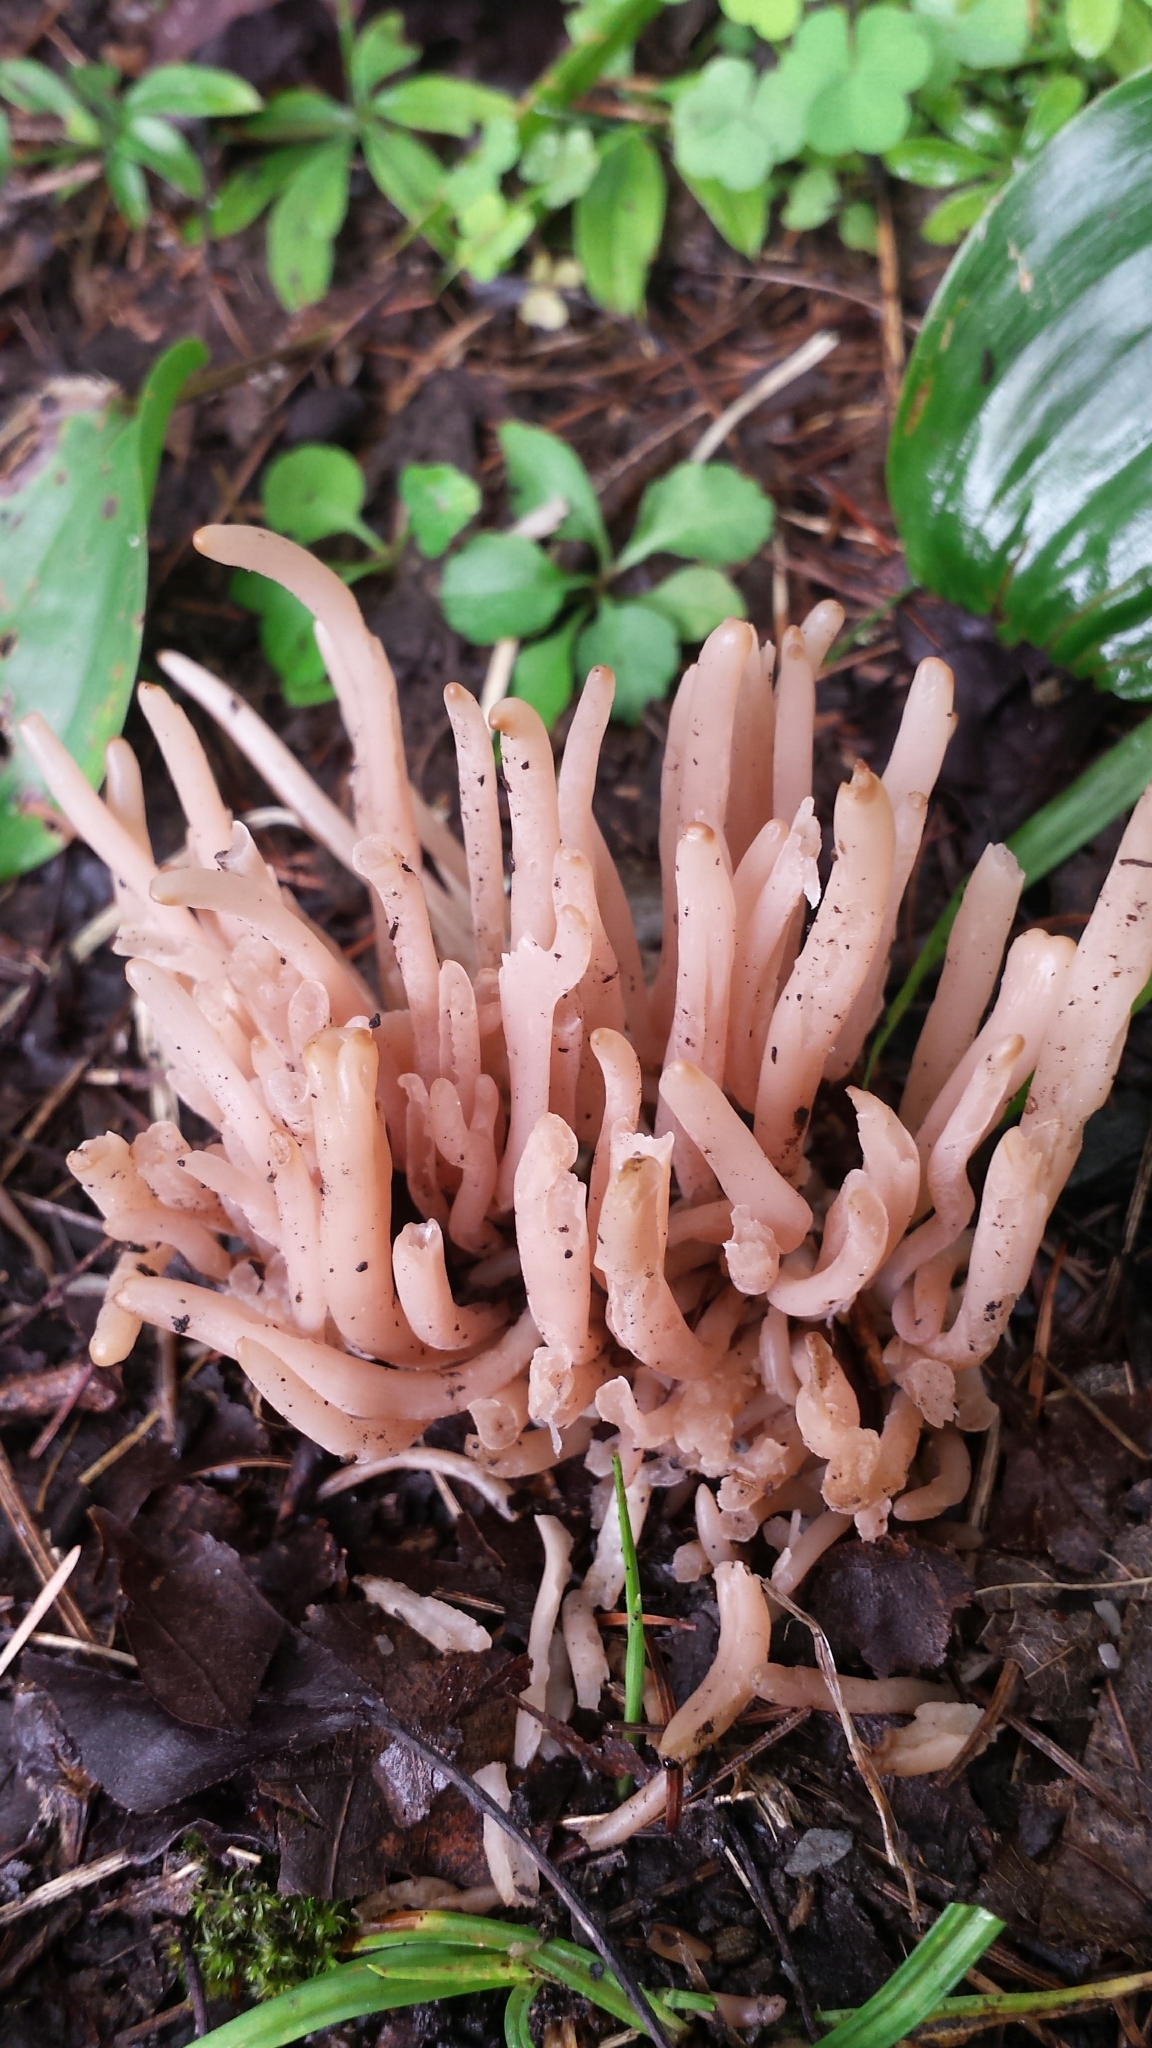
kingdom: Fungi
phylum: Basidiomycota
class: Agaricomycetes
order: Agaricales
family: Clavariaceae
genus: Clavaria
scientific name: Clavaria fumosa
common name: Smoky spindles
